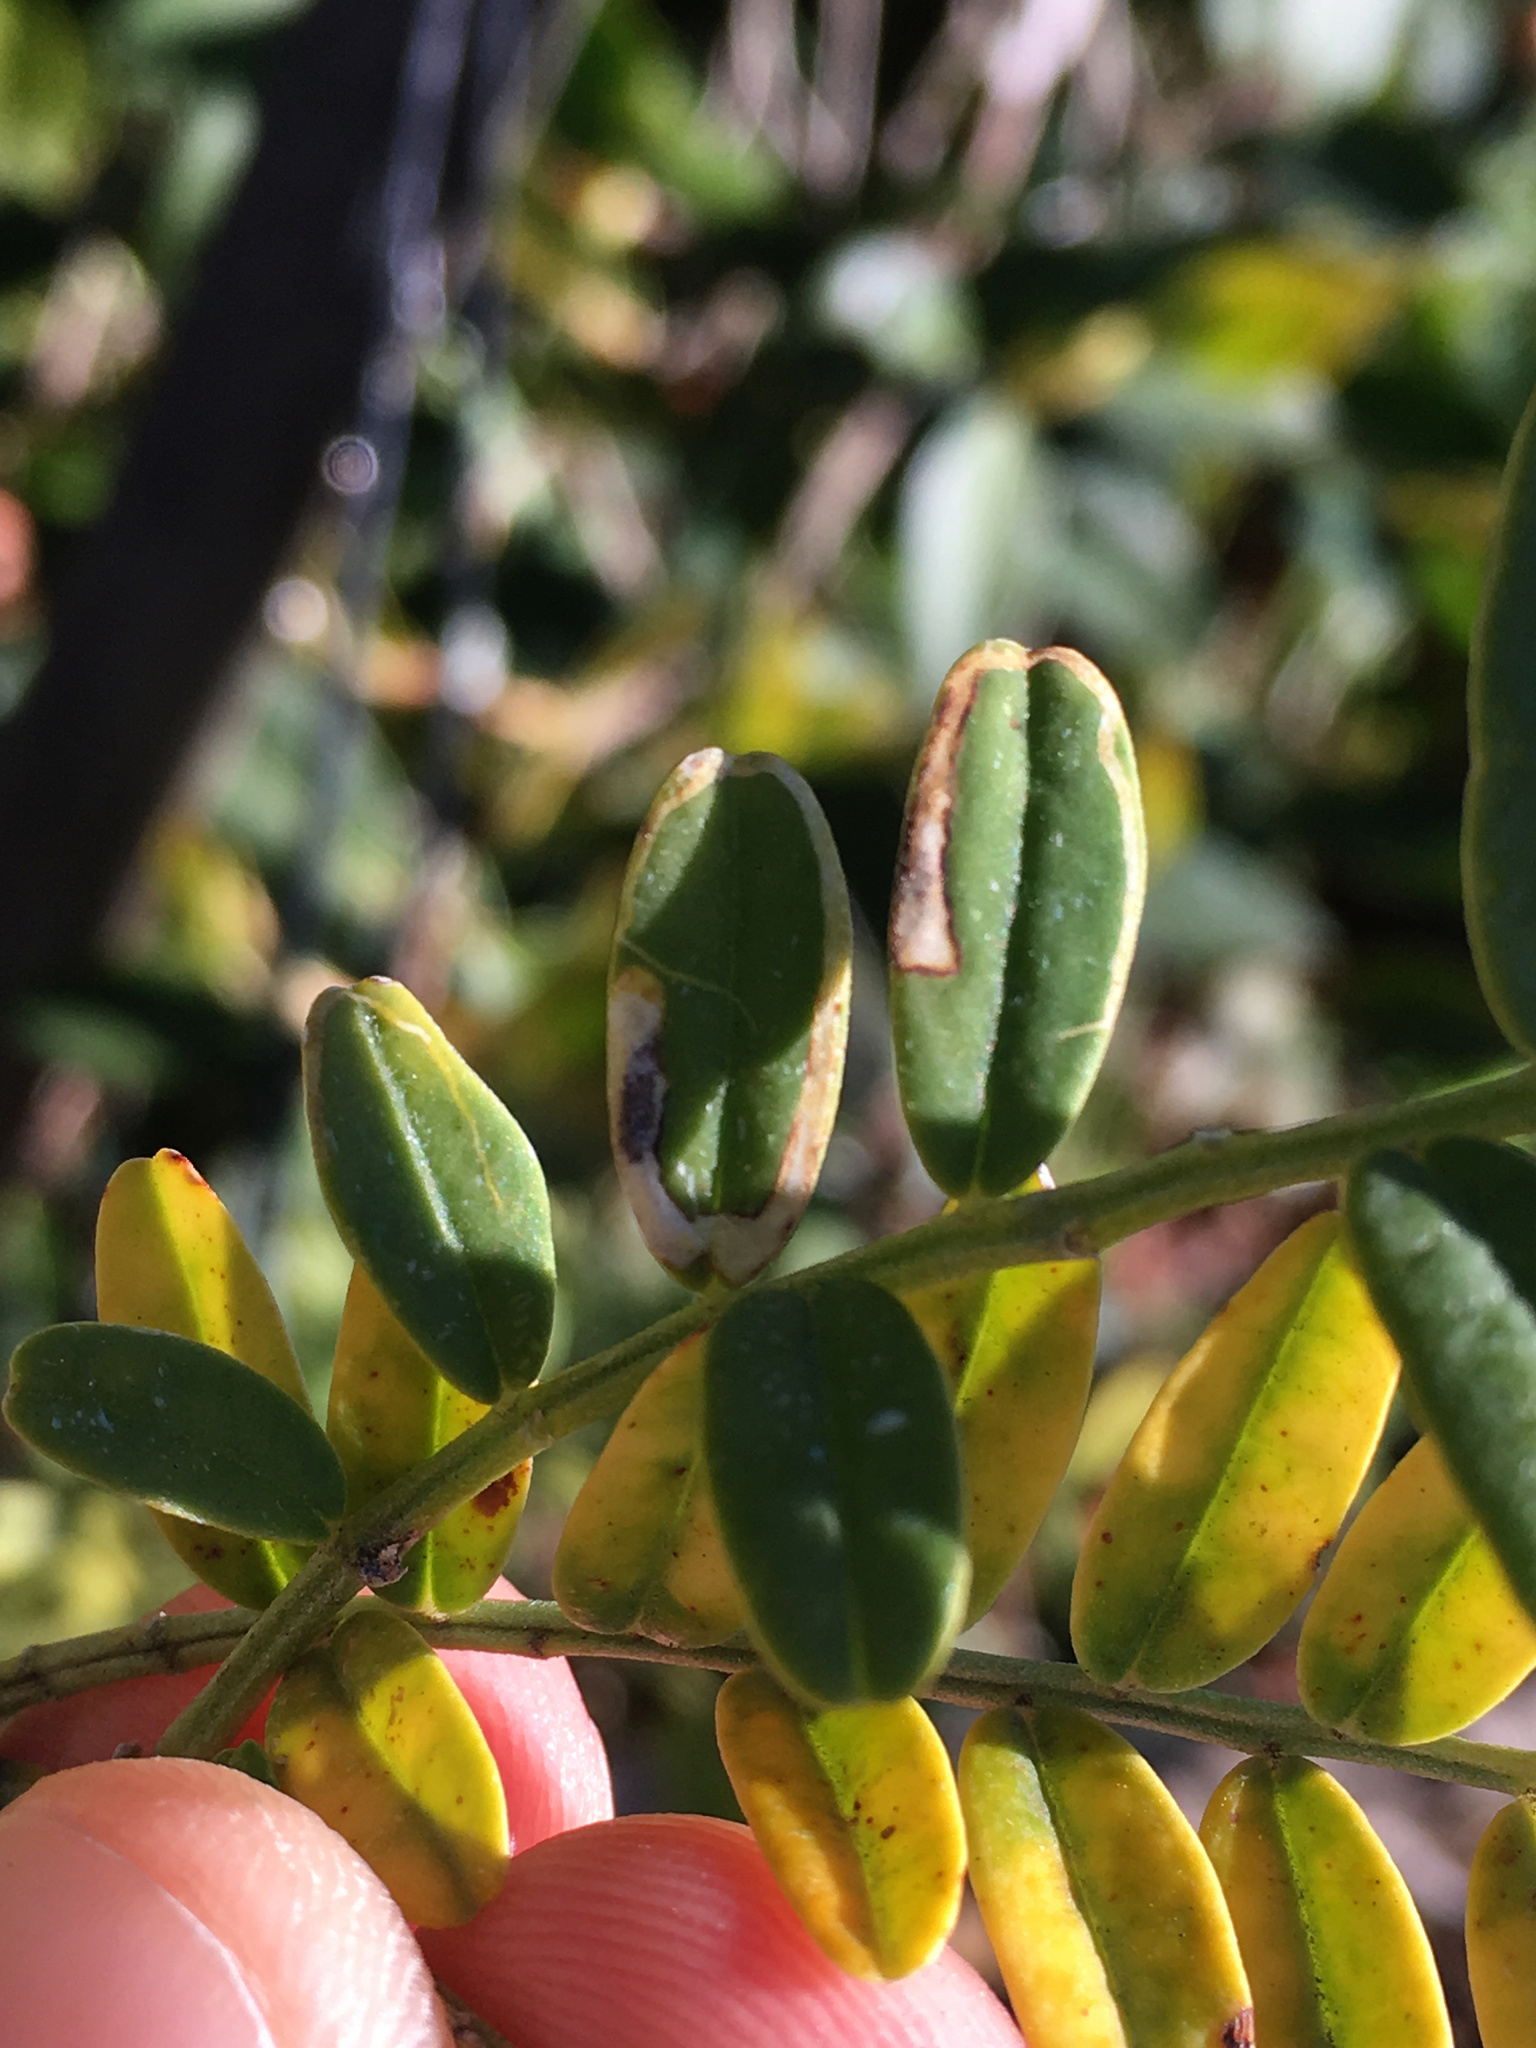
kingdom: Animalia
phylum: Arthropoda
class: Insecta
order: Diptera
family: Agromyzidae
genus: Liriomyza
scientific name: Liriomyza clianthi
